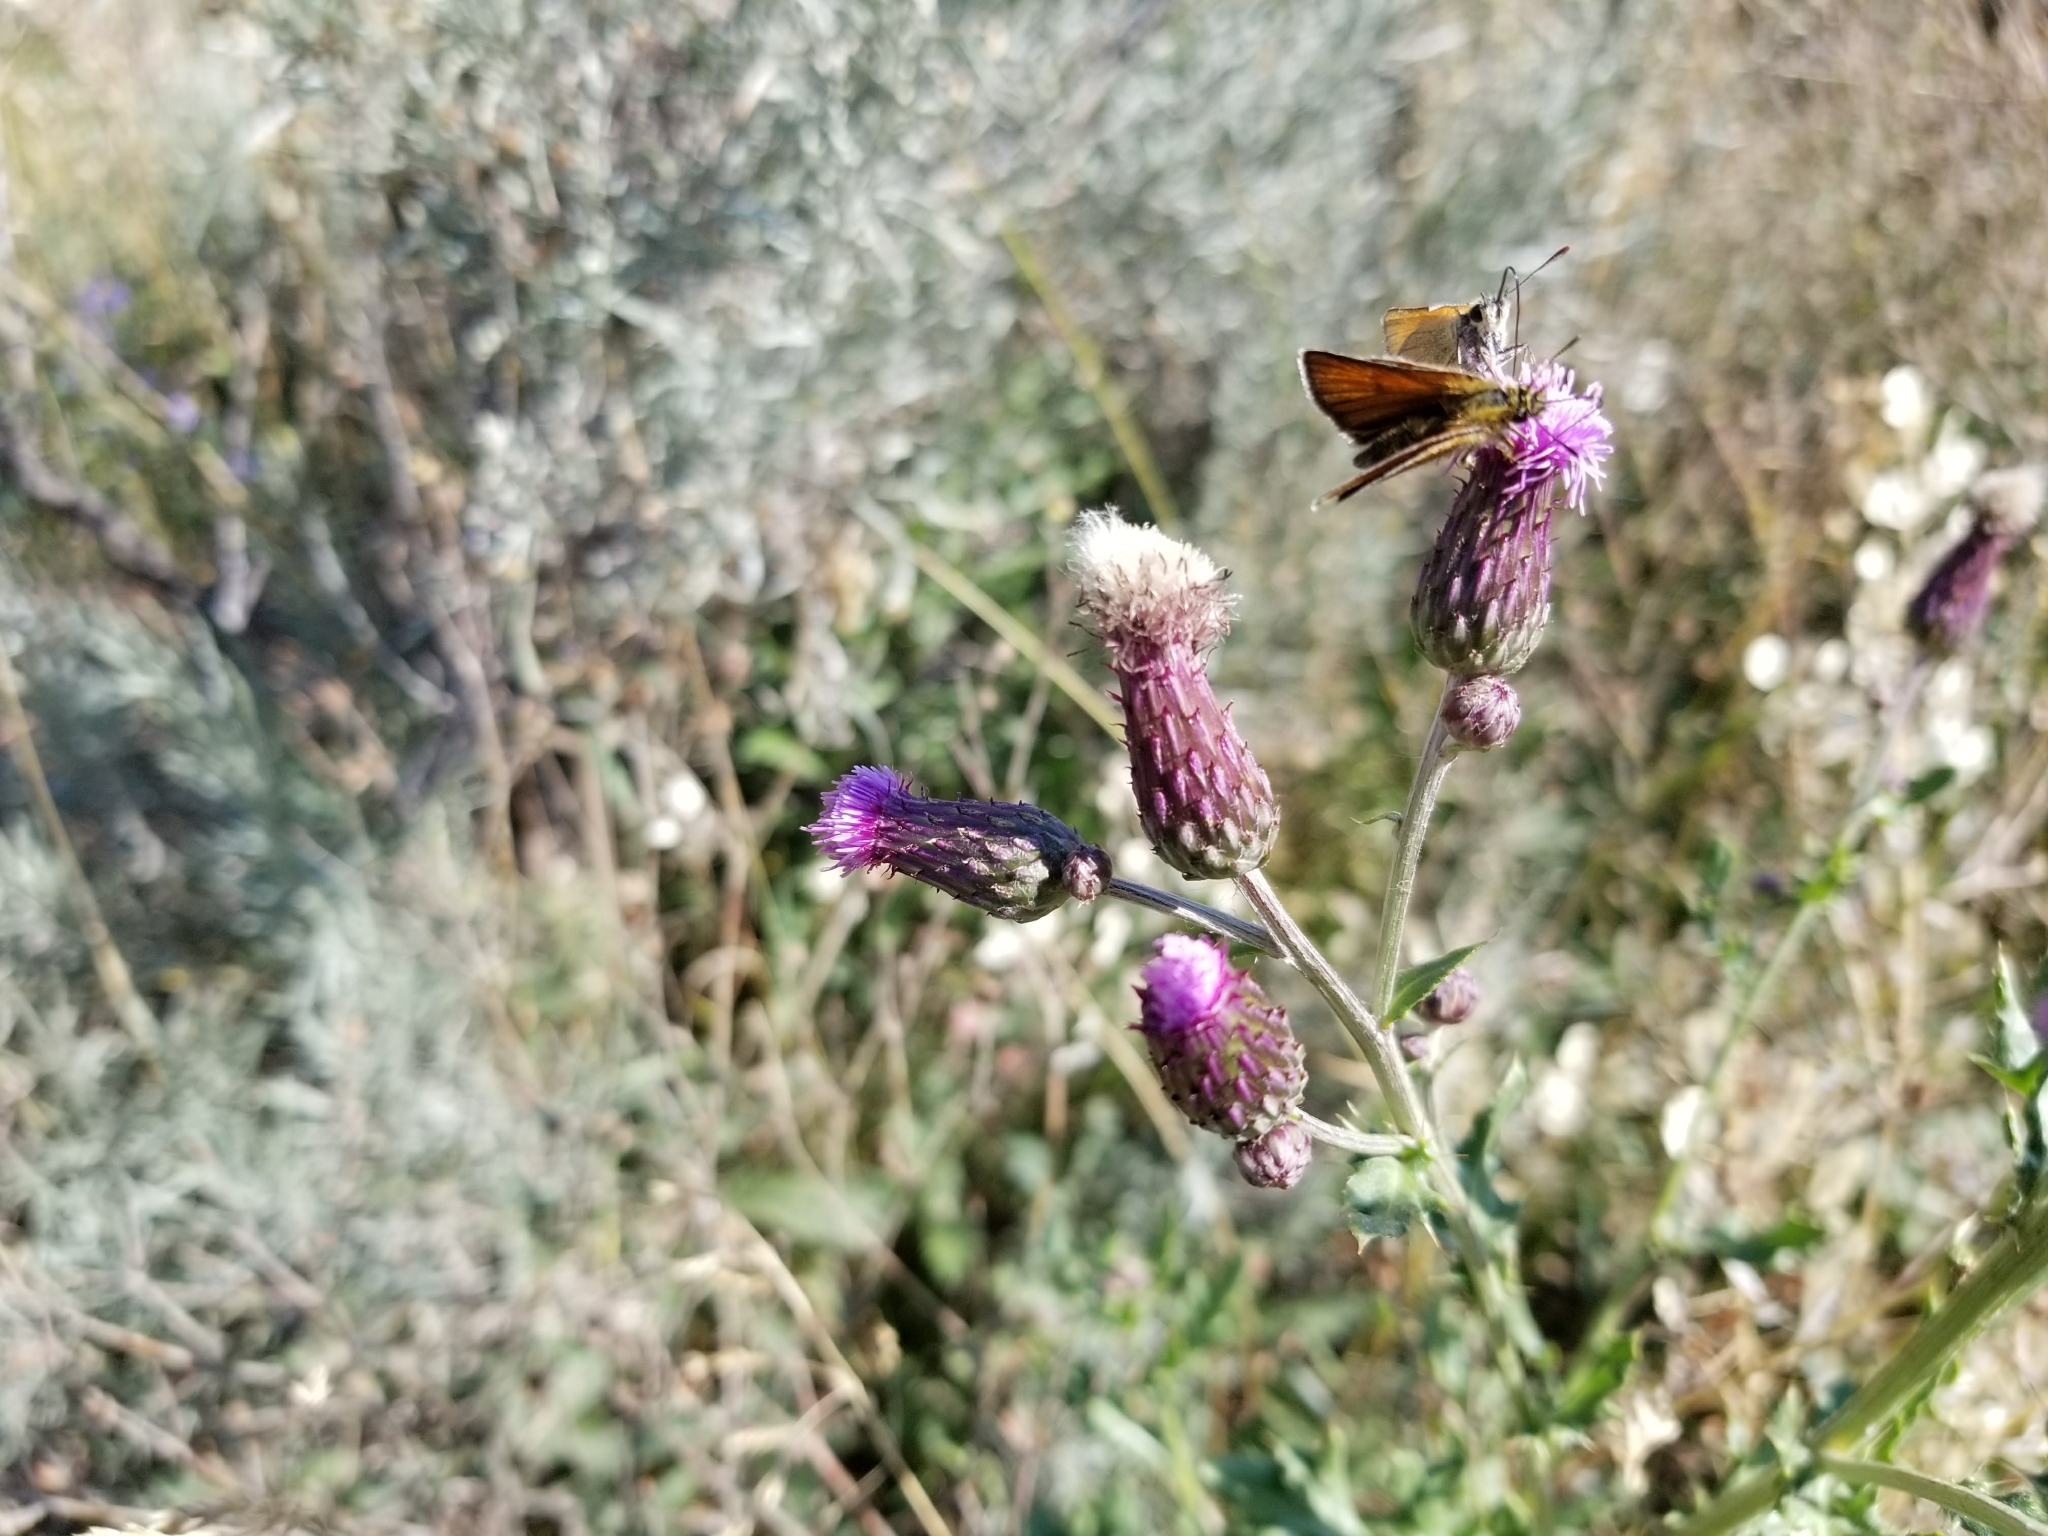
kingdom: Animalia
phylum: Arthropoda
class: Insecta
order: Lepidoptera
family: Hesperiidae
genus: Thymelicus
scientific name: Thymelicus lineola
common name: Essex skipper
